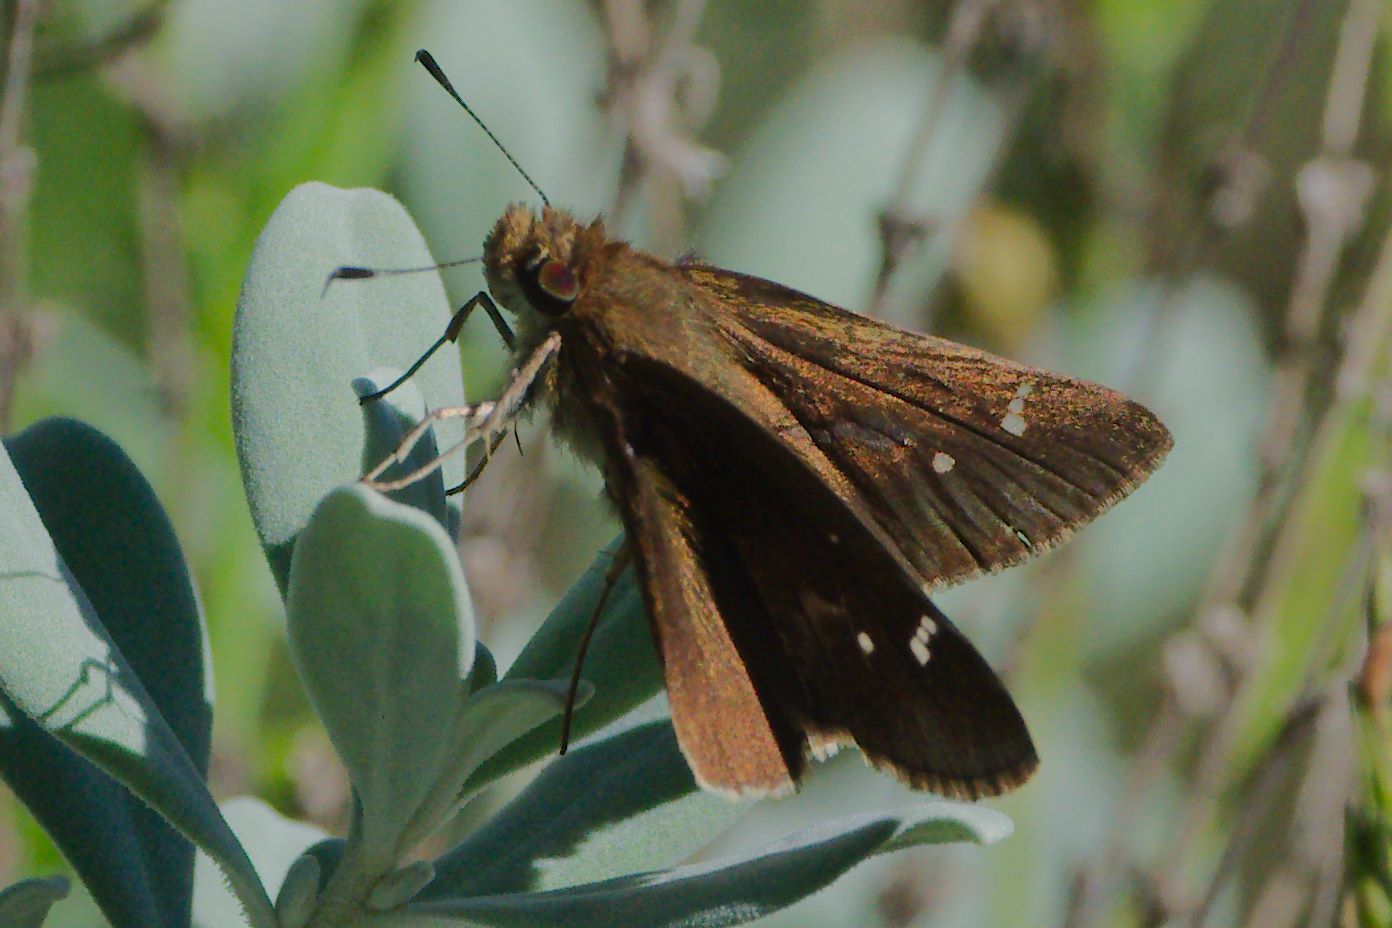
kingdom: Animalia
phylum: Arthropoda
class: Insecta
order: Lepidoptera
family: Hesperiidae
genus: Lerema
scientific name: Lerema accius
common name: Clouded skipper
